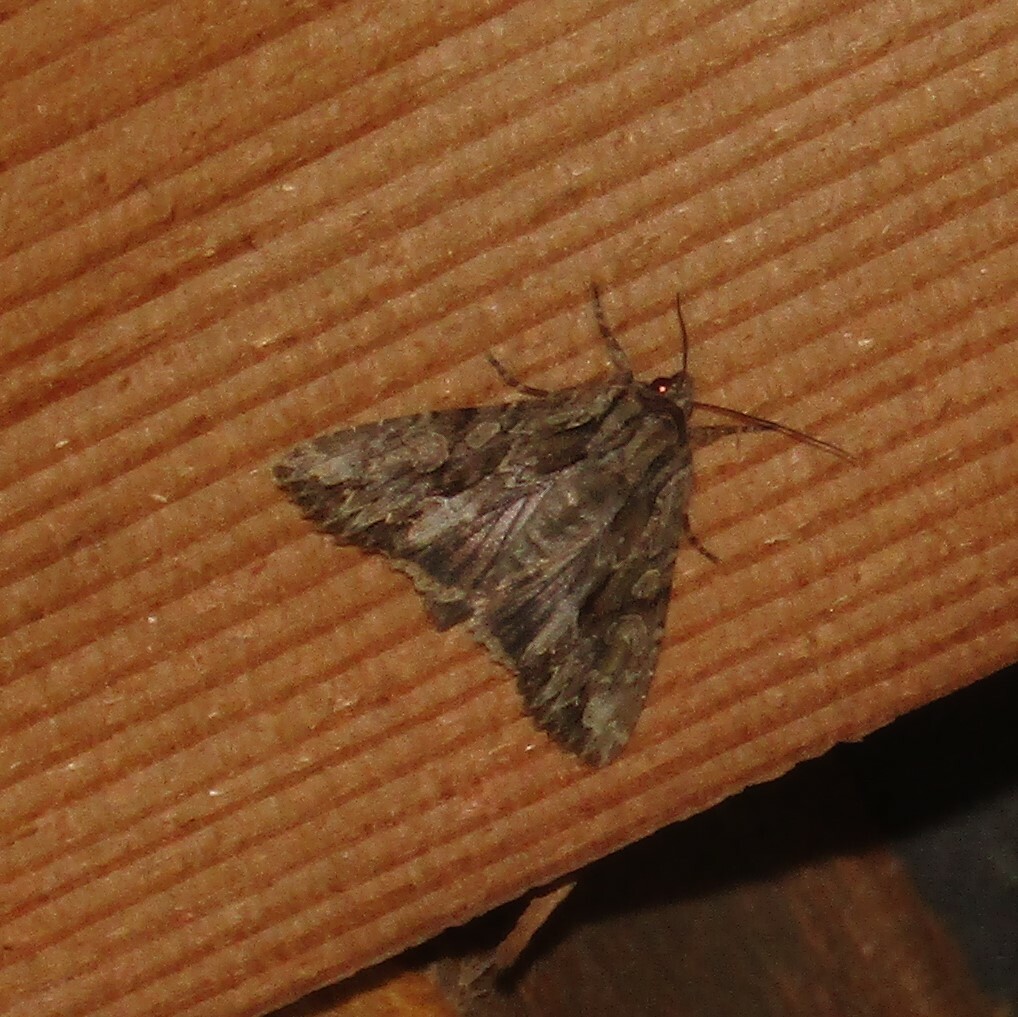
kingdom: Animalia
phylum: Arthropoda
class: Insecta
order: Lepidoptera
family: Noctuidae
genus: Apamea
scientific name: Apamea monoglypha
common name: Dark arches
